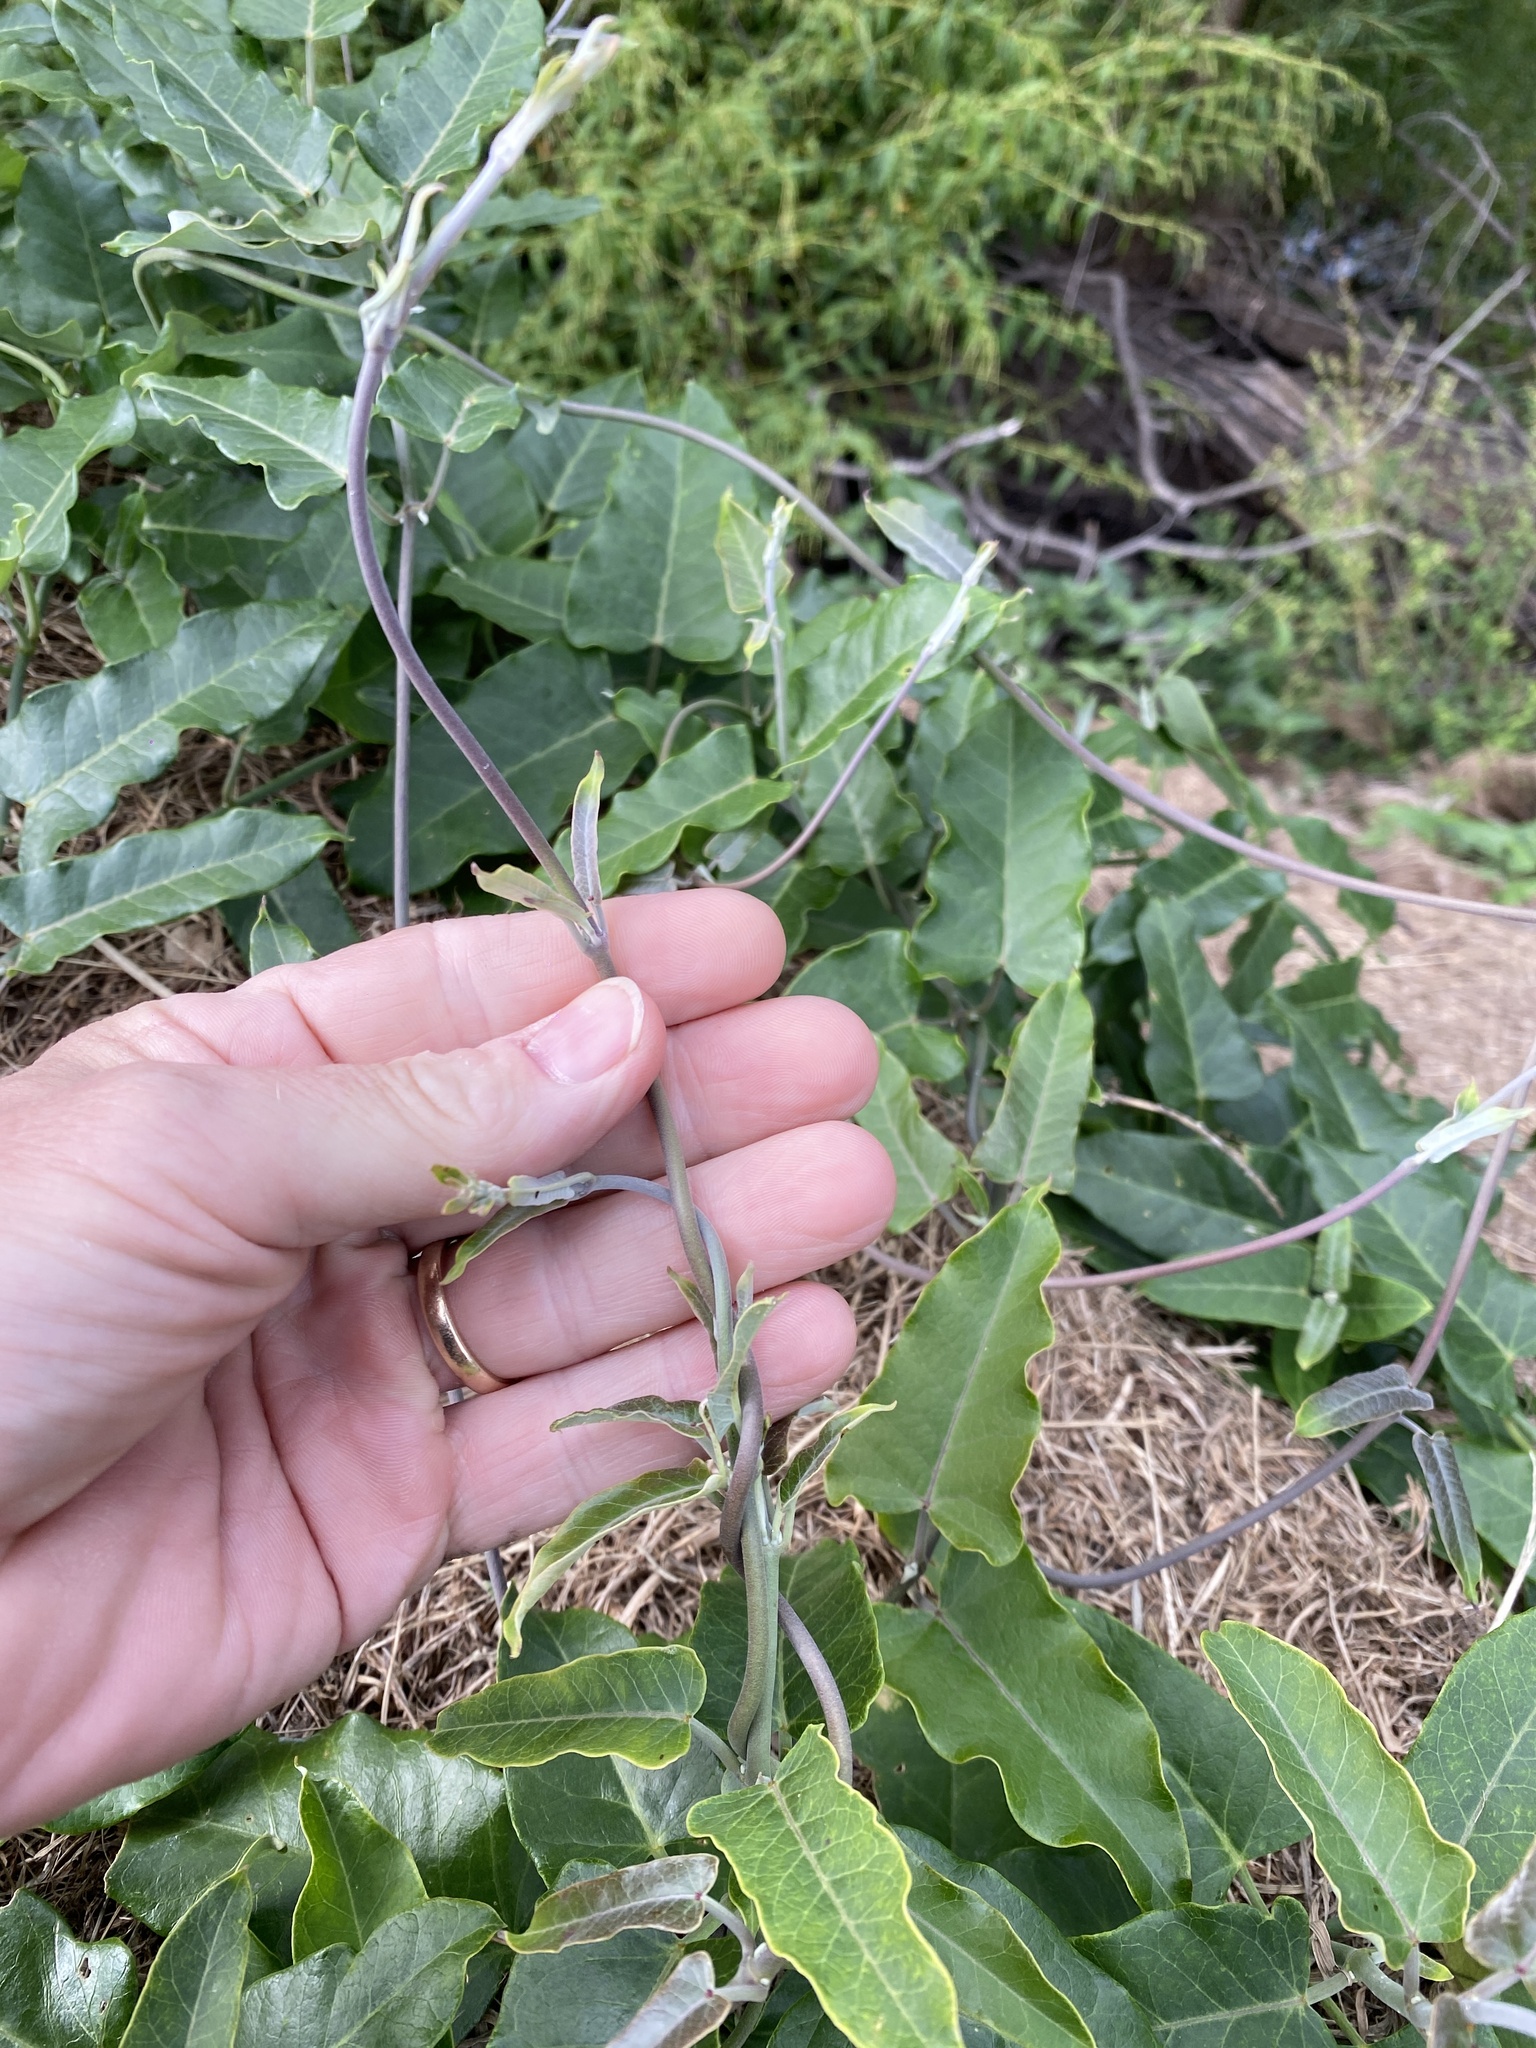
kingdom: Plantae
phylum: Tracheophyta
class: Magnoliopsida
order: Gentianales
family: Apocynaceae
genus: Araujia
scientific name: Araujia sericifera
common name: White bladderflower
